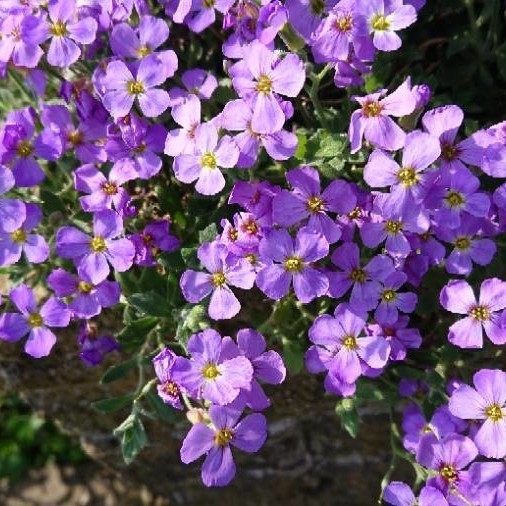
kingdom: Plantae
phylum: Tracheophyta
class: Magnoliopsida
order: Brassicales
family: Brassicaceae
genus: Aubrieta
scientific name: Aubrieta deltoidea
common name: Aubretia
